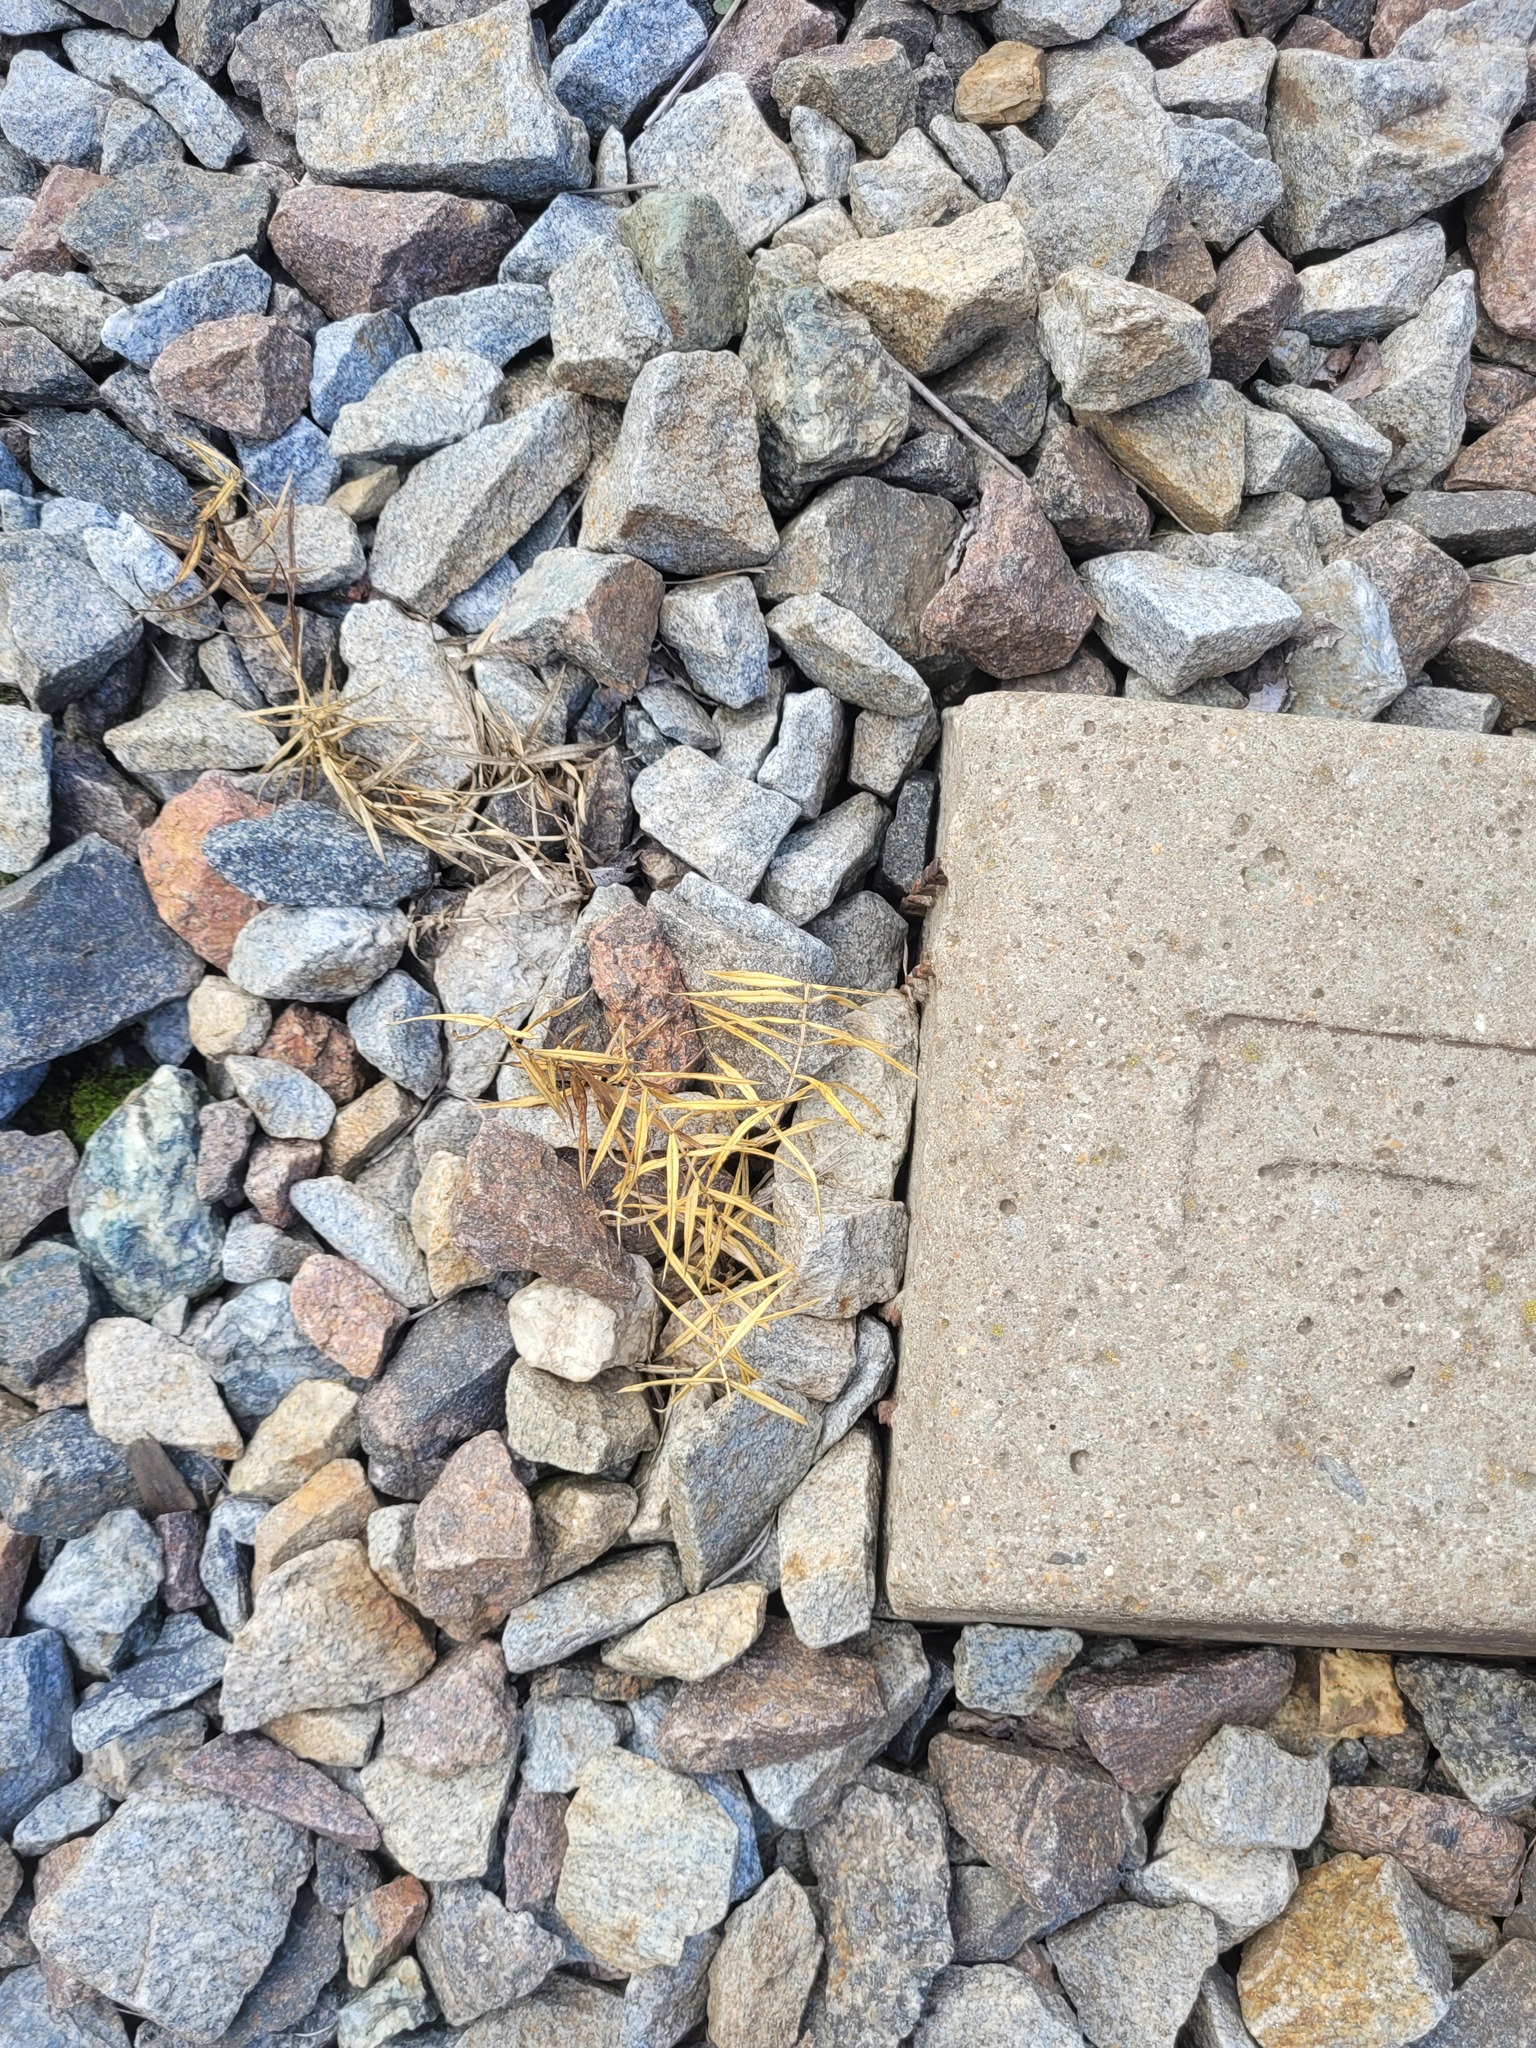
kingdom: Plantae
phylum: Tracheophyta
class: Magnoliopsida
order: Caryophyllales
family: Caryophyllaceae
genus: Rabelera
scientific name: Rabelera holostea
